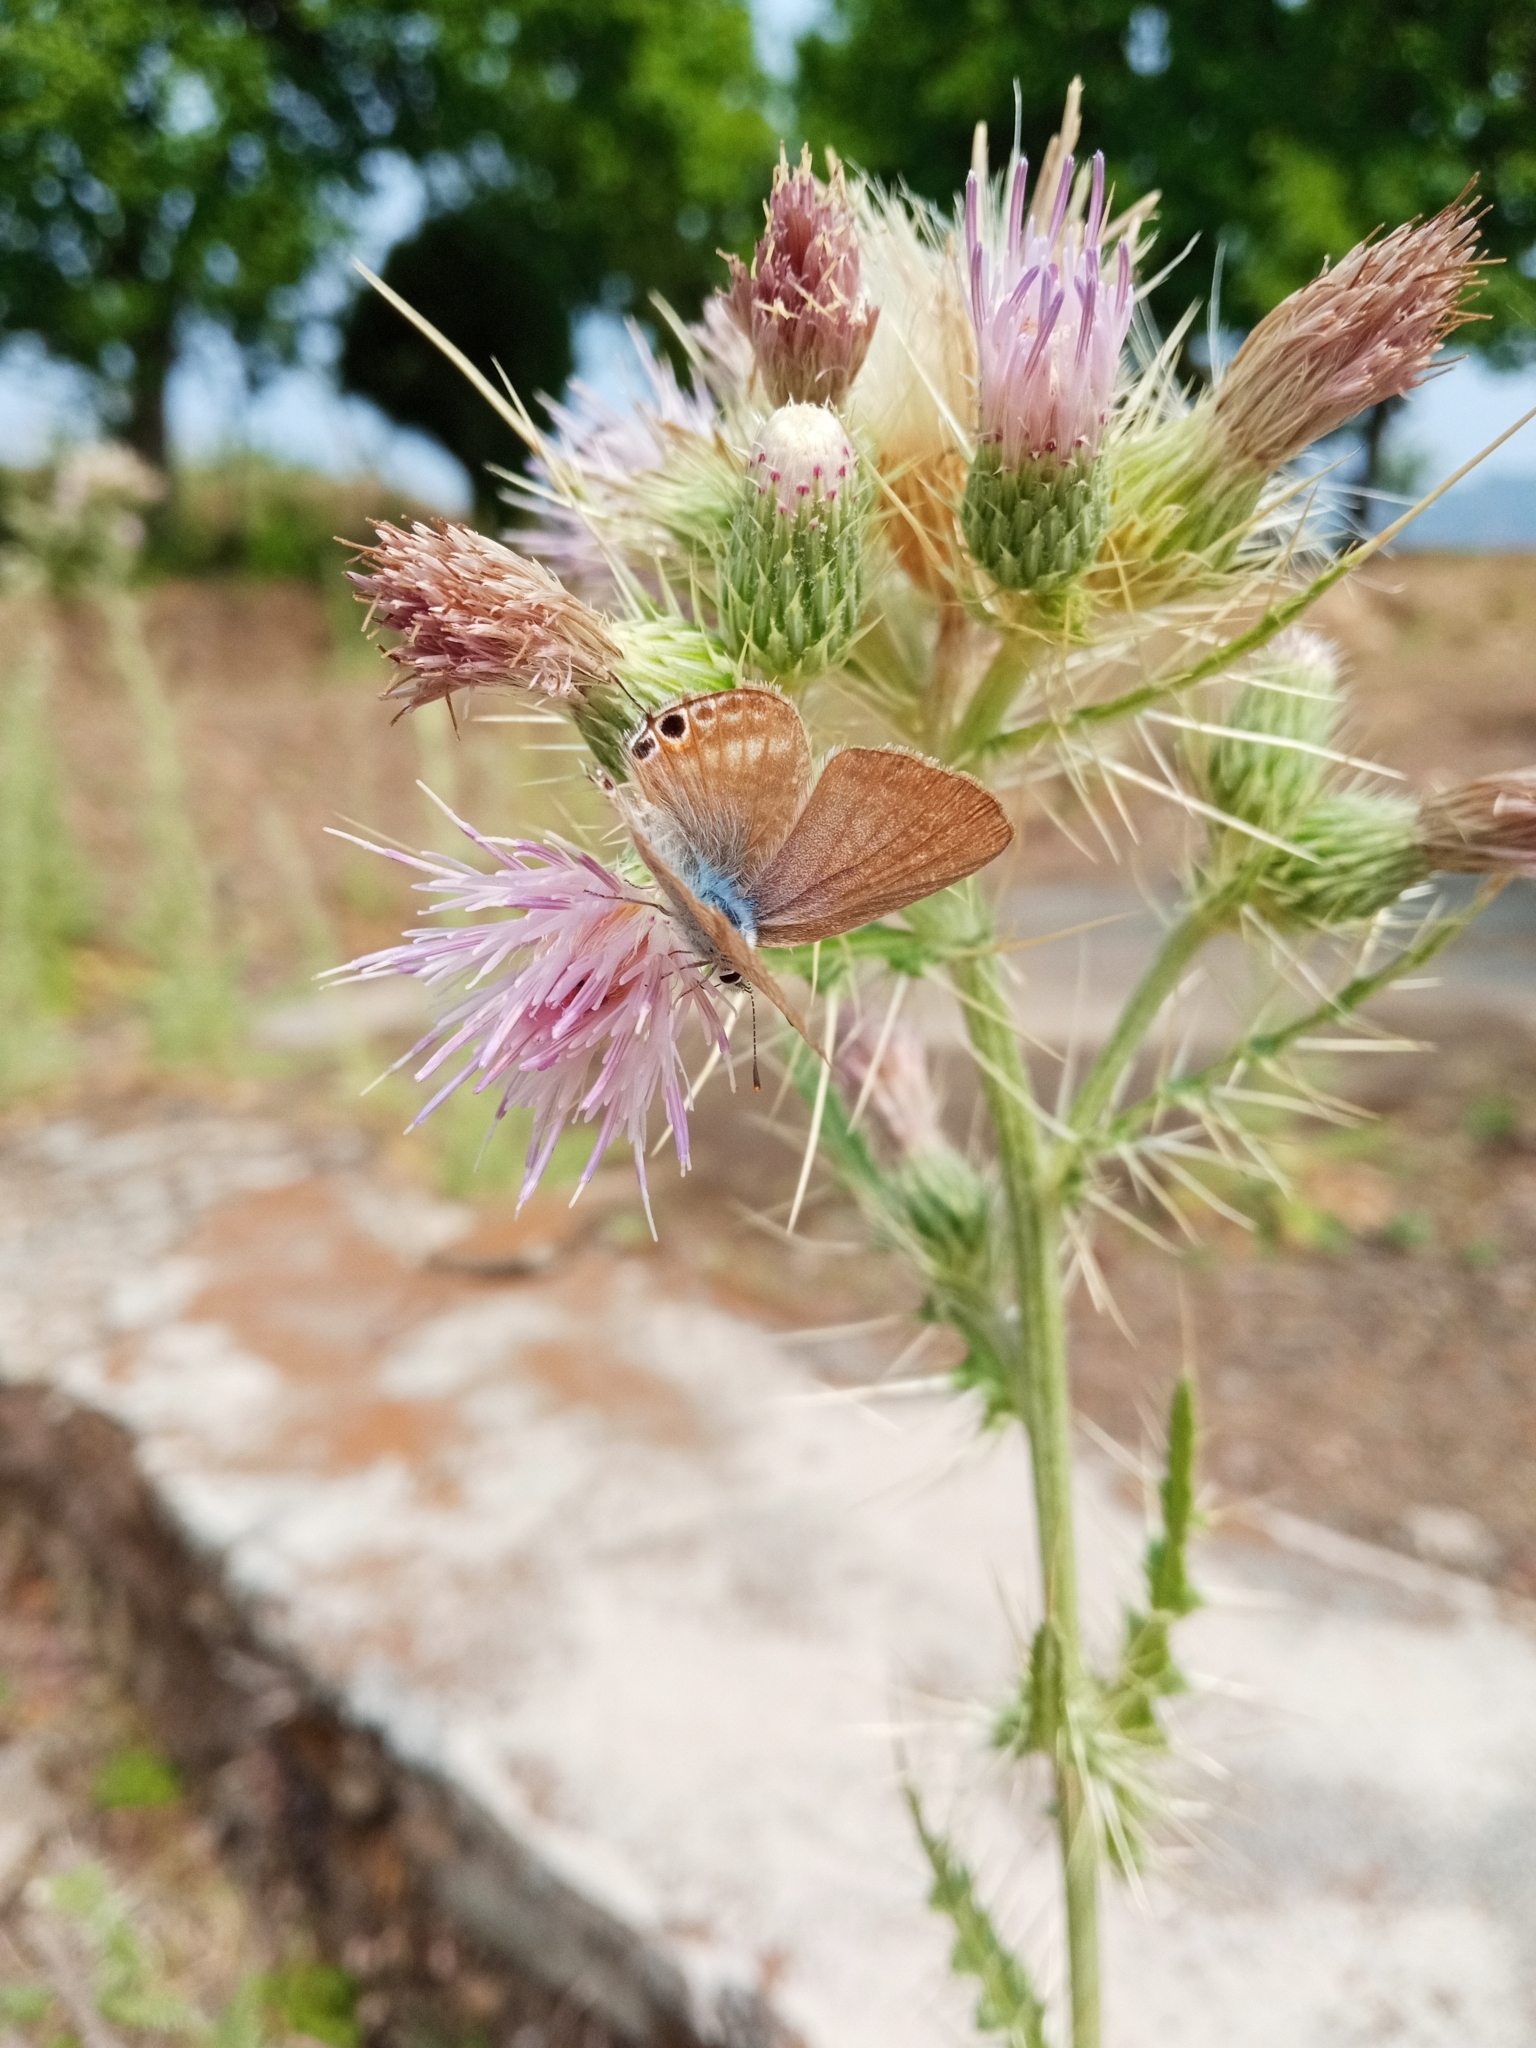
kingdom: Animalia
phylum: Arthropoda
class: Insecta
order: Lepidoptera
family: Lycaenidae
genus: Lampides
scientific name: Lampides boeticus
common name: Long-tailed blue
